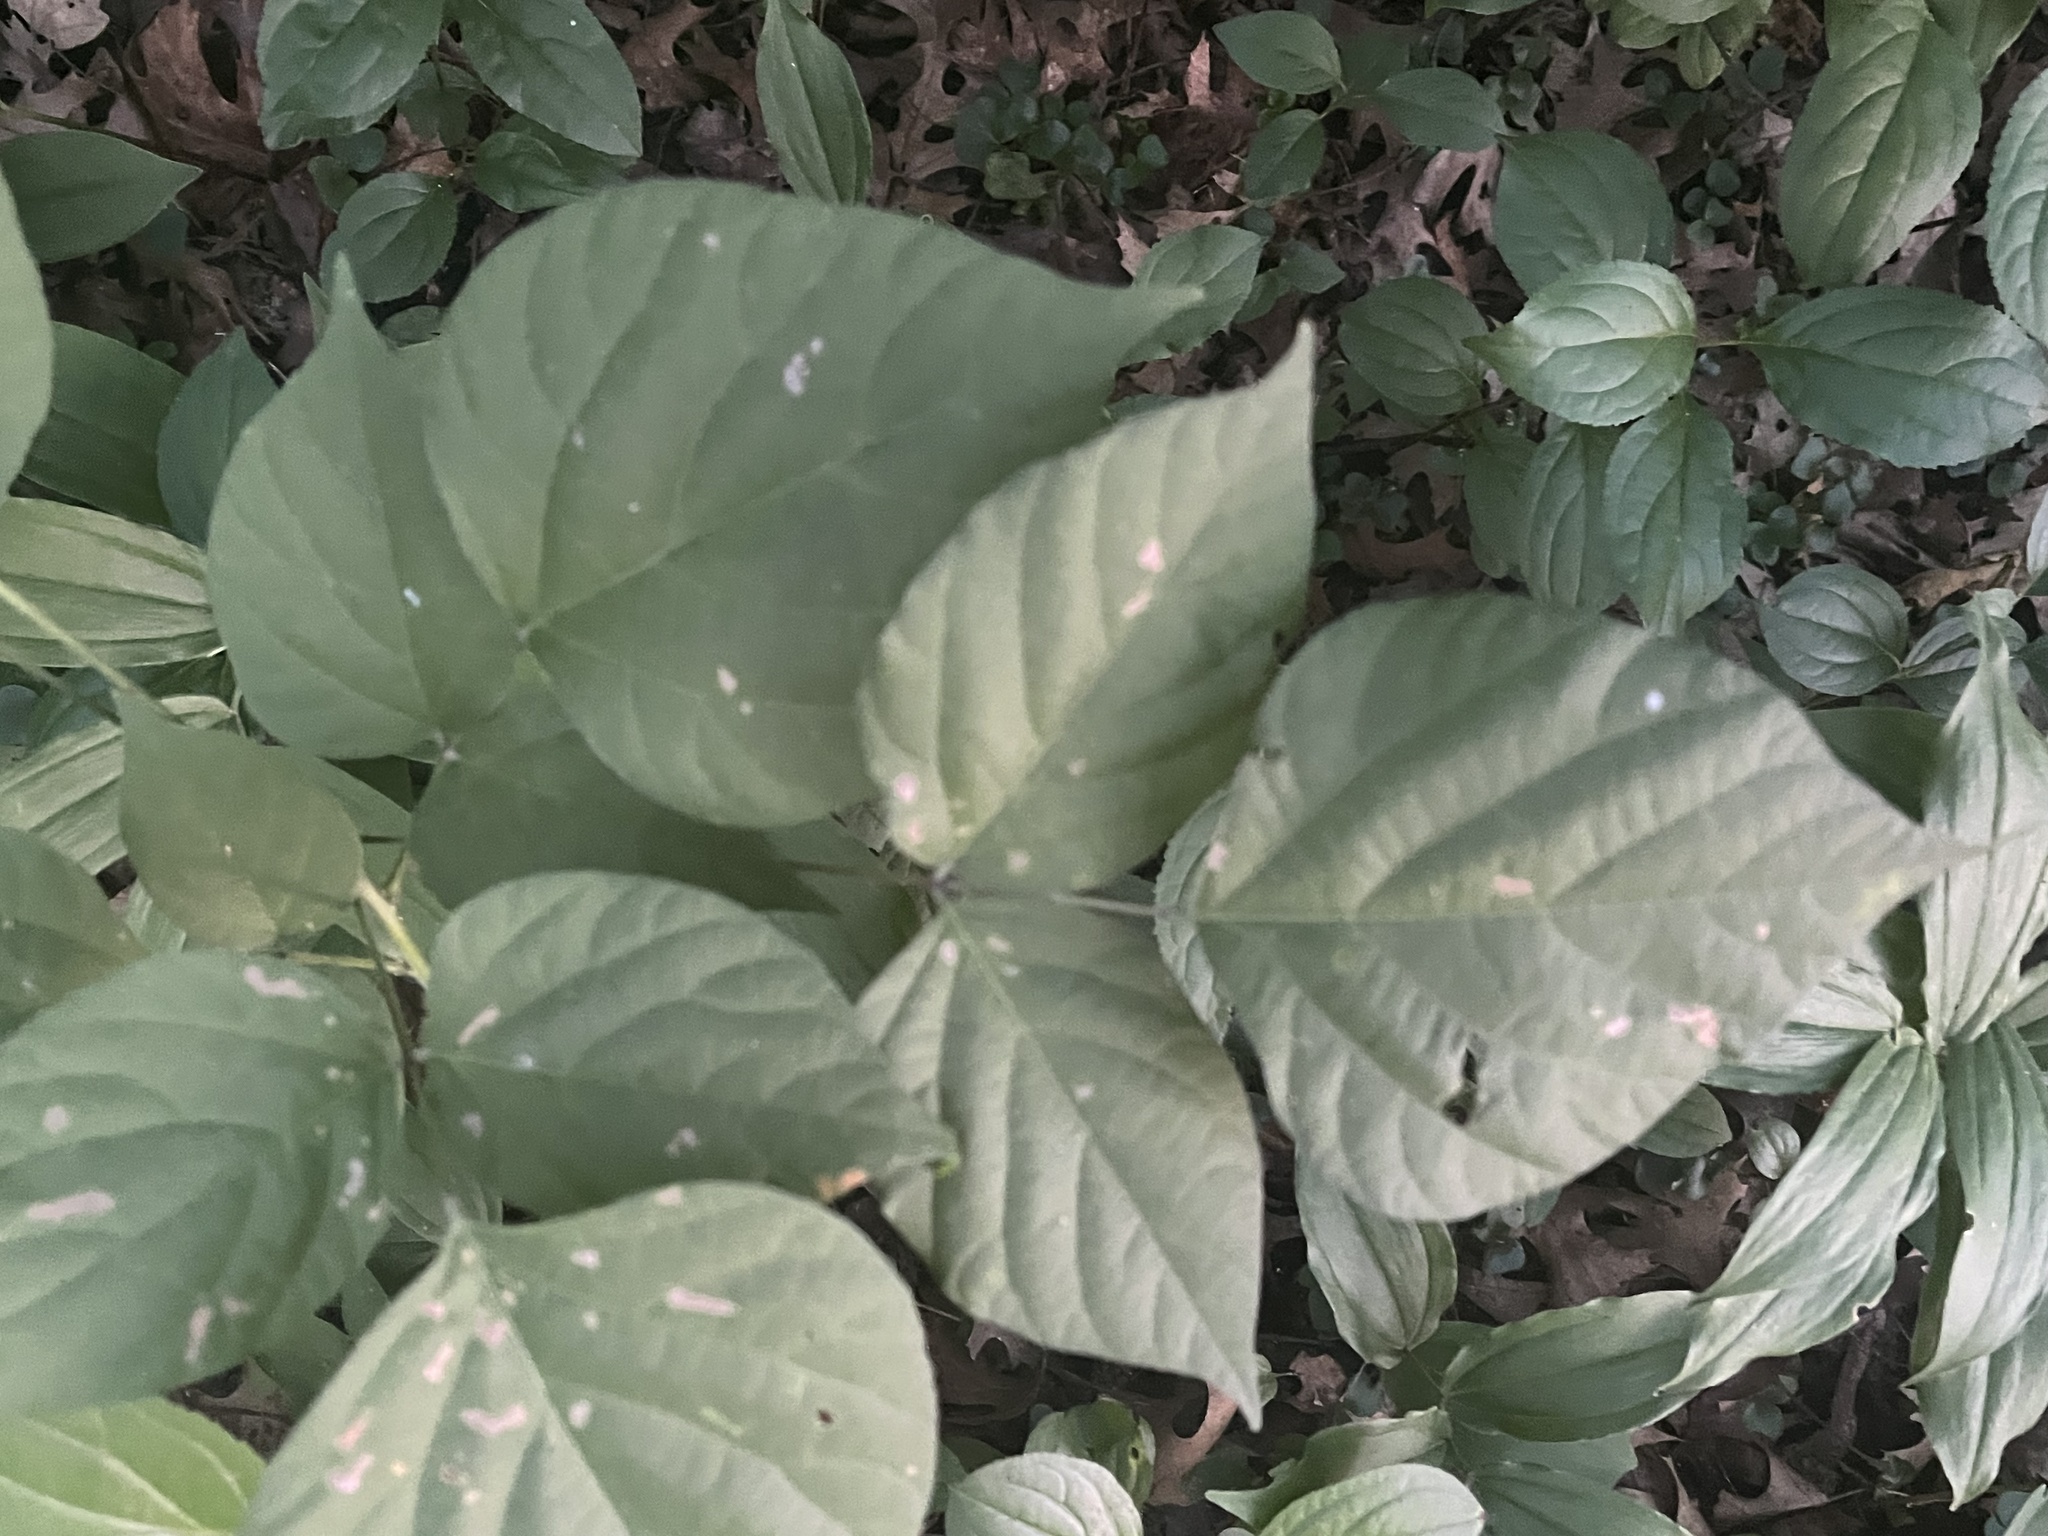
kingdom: Plantae
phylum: Tracheophyta
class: Magnoliopsida
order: Fabales
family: Fabaceae
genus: Hylodesmum
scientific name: Hylodesmum glutinosum
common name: Clustered-leaved tick-trefoil
